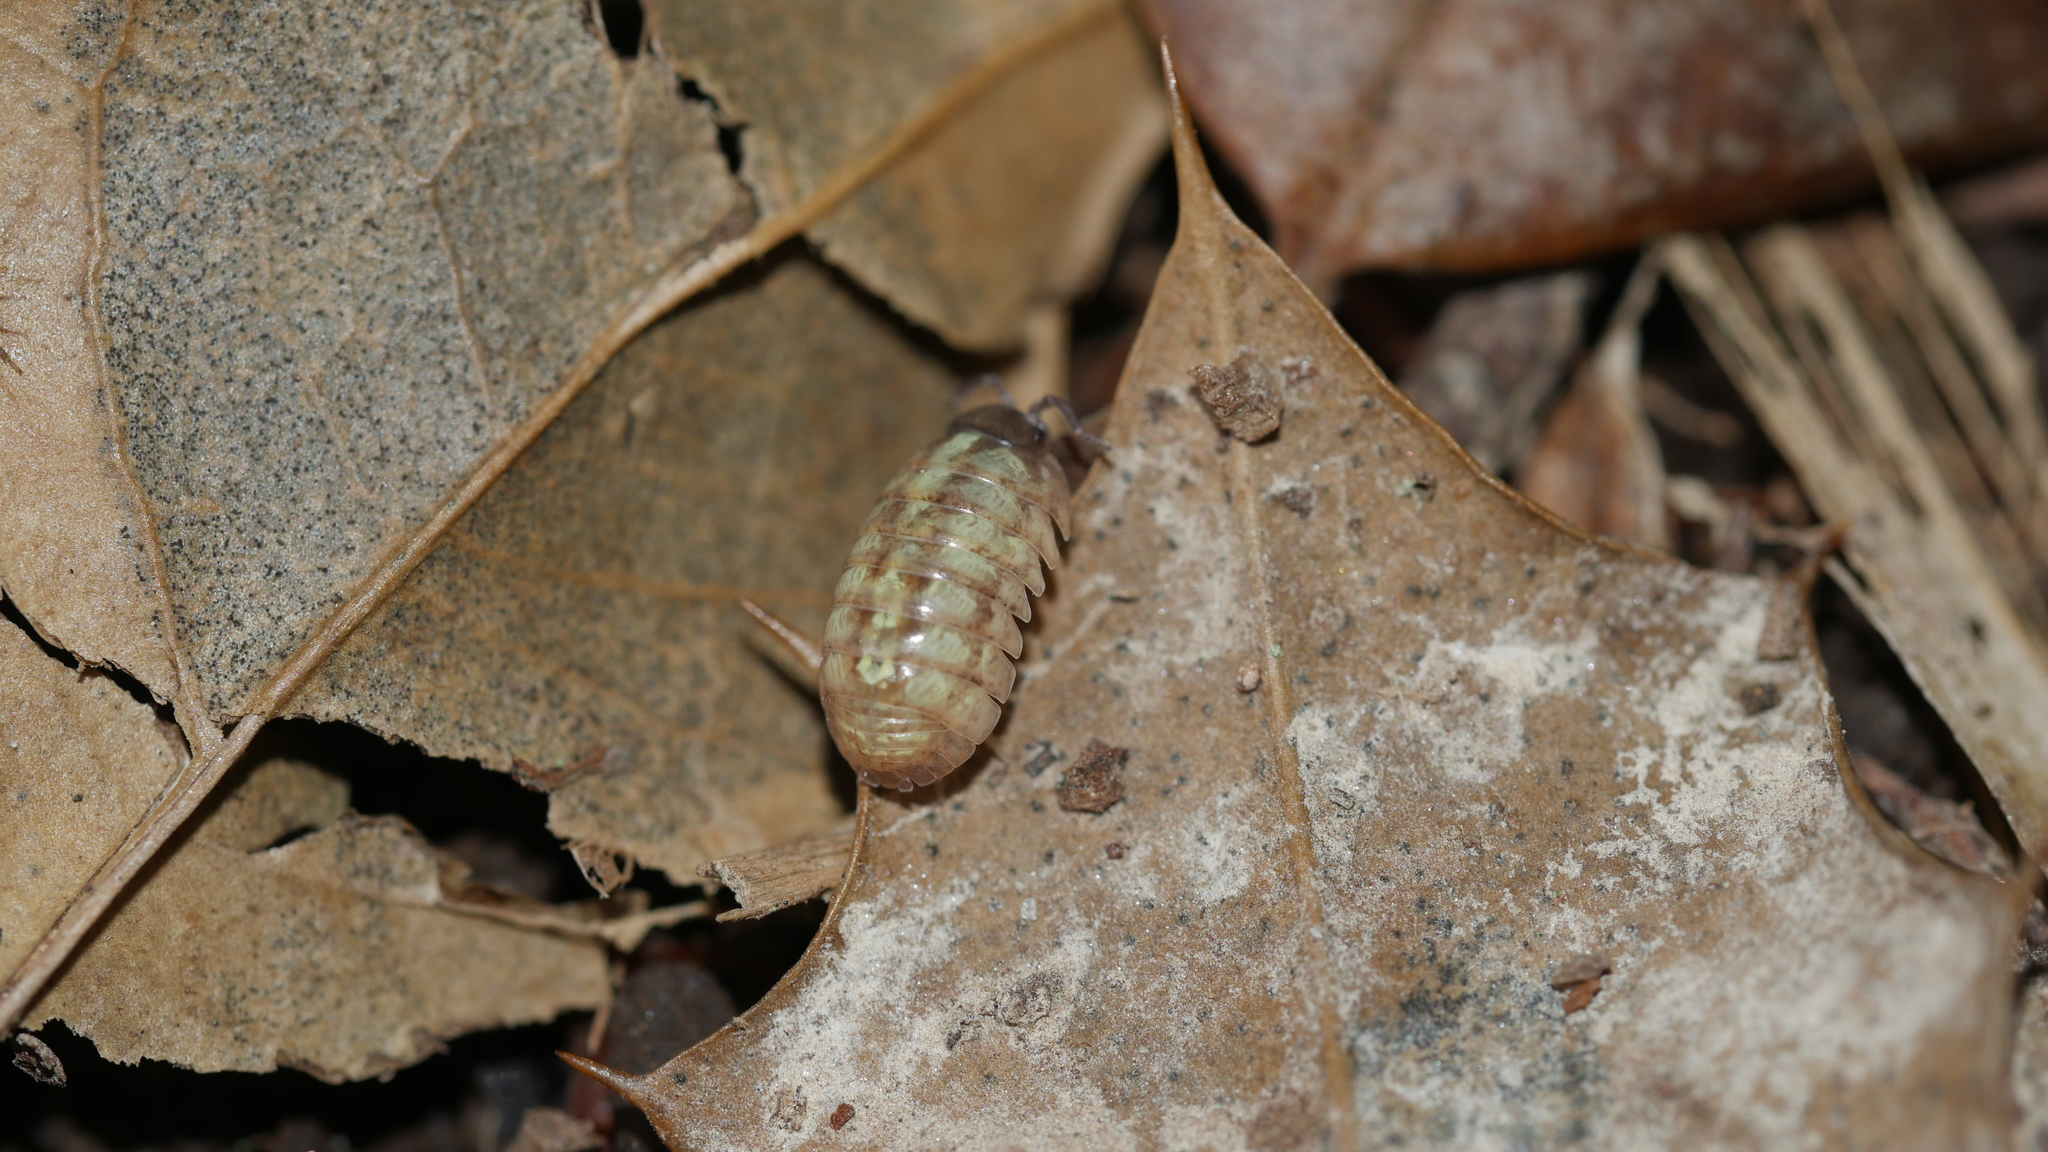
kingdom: Animalia
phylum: Arthropoda
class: Malacostraca
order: Isopoda
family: Armadillidiidae
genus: Armadillidium
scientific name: Armadillidium vulgare
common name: Common pill woodlouse
